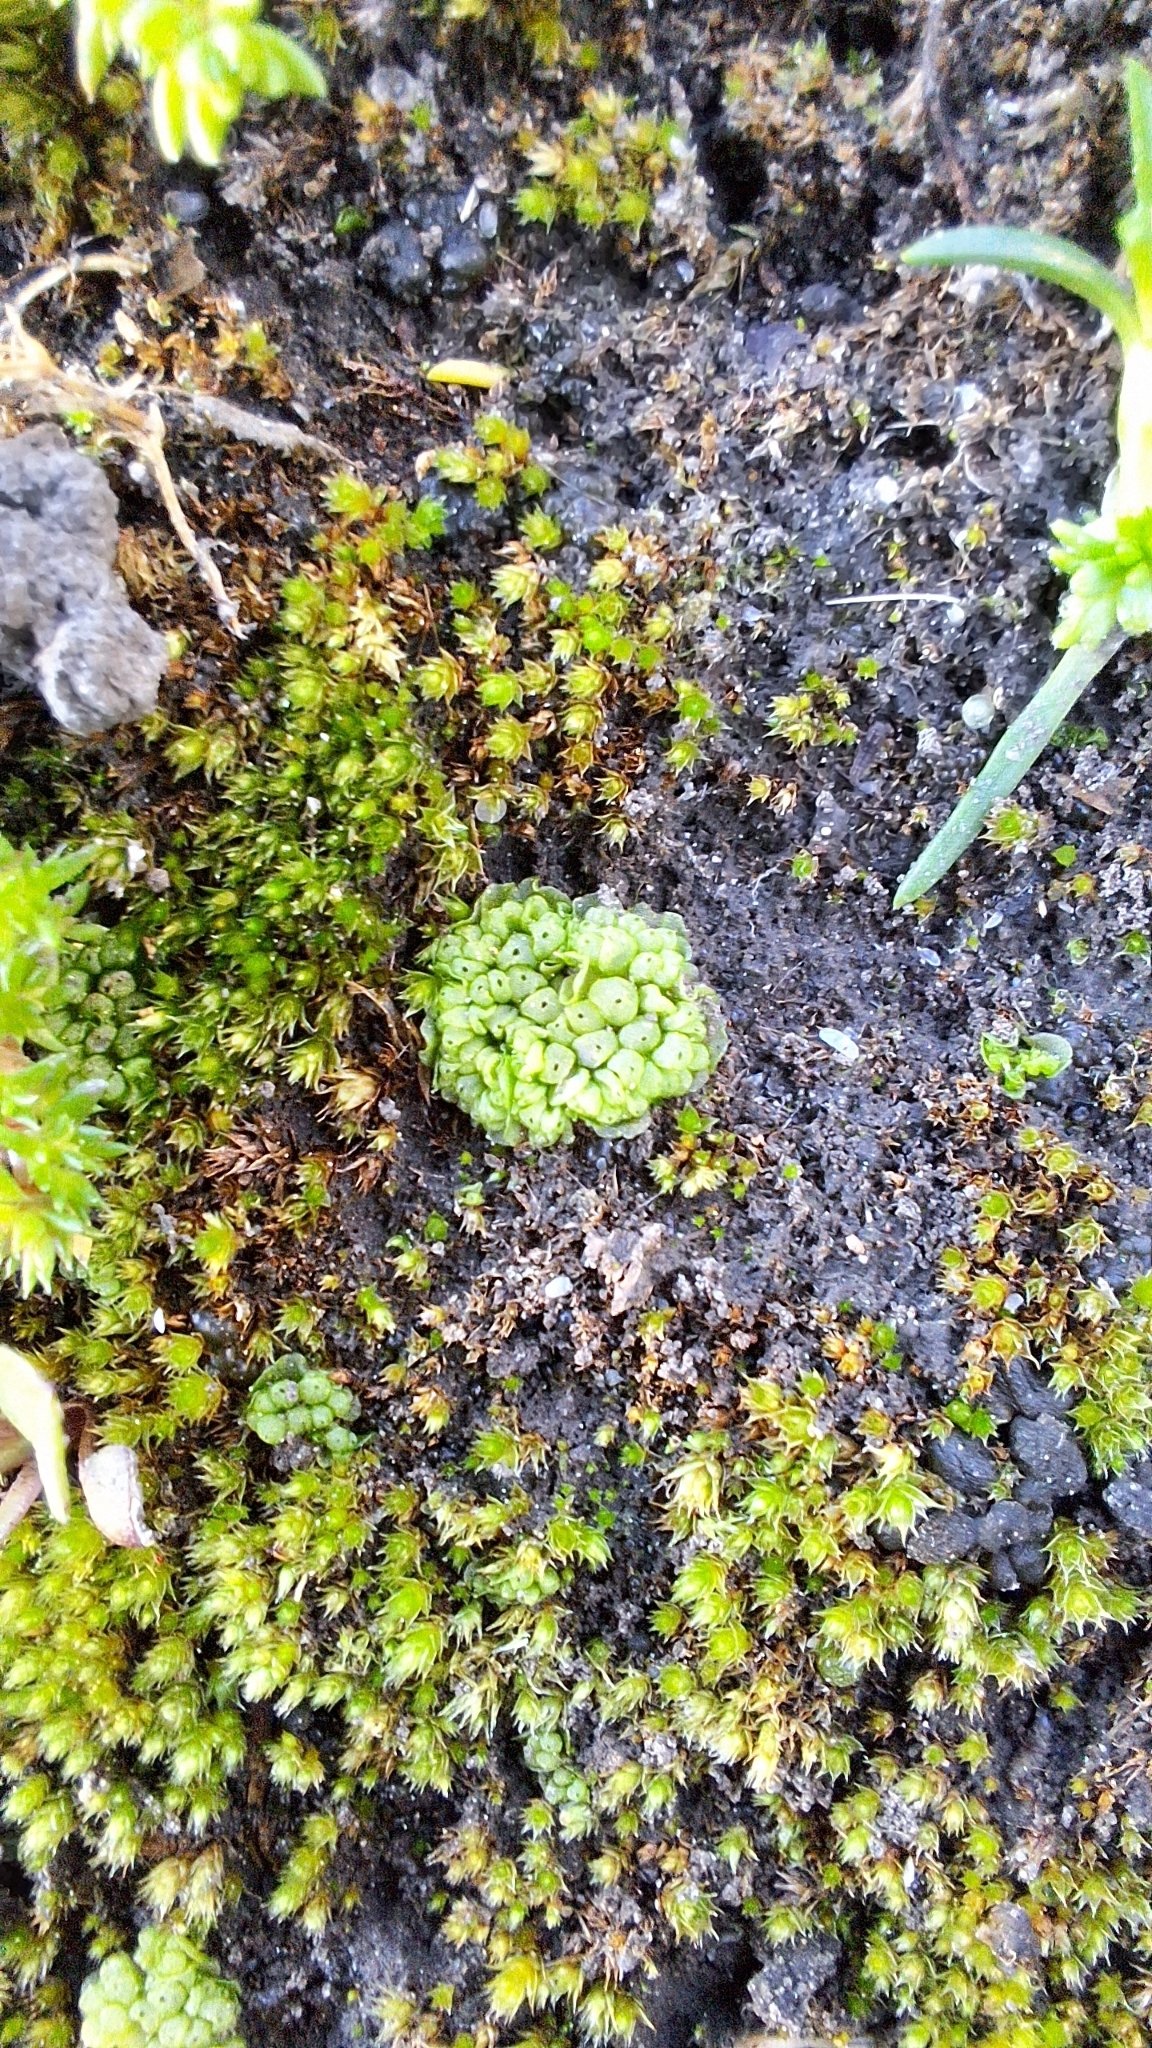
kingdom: Plantae
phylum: Marchantiophyta
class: Marchantiopsida
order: Sphaerocarpales
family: Sphaerocarpaceae
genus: Sphaerocarpos
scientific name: Sphaerocarpos texanus
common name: Texas balloonwort
